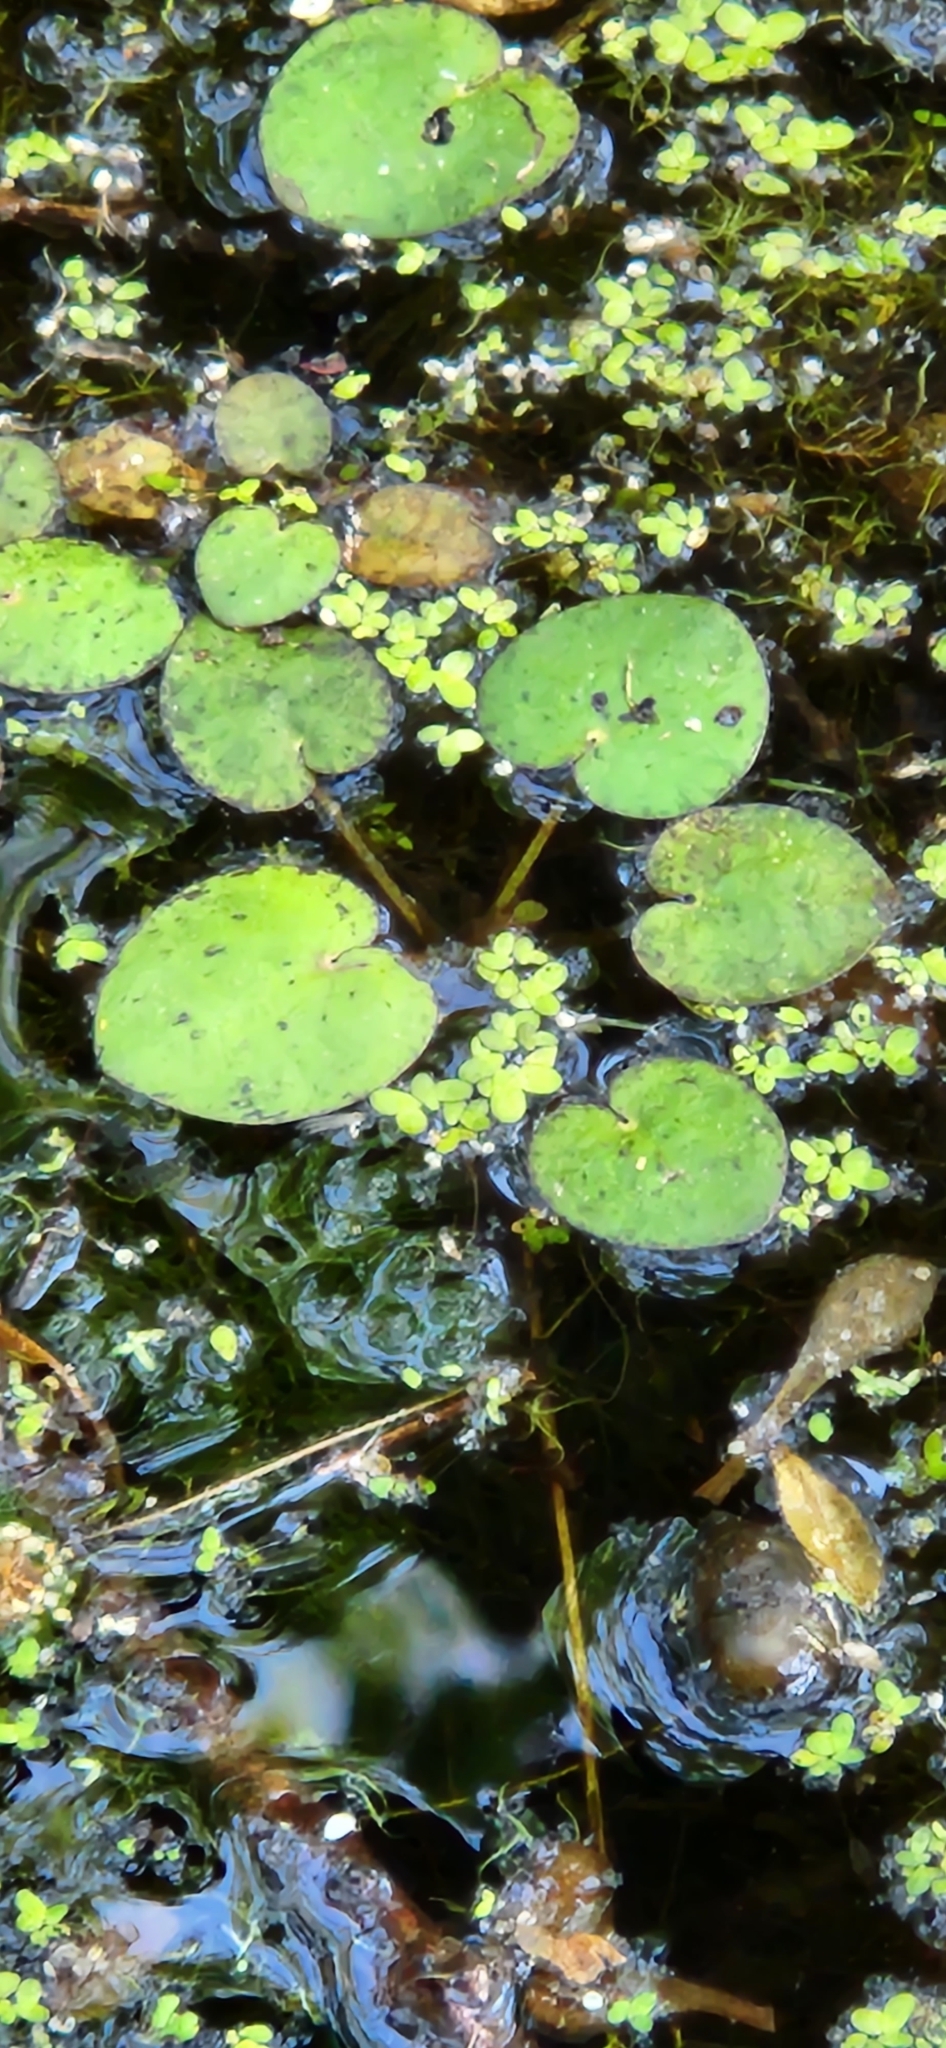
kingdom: Plantae
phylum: Tracheophyta
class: Liliopsida
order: Alismatales
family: Hydrocharitaceae
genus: Hydrocharis
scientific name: Hydrocharis spongia
